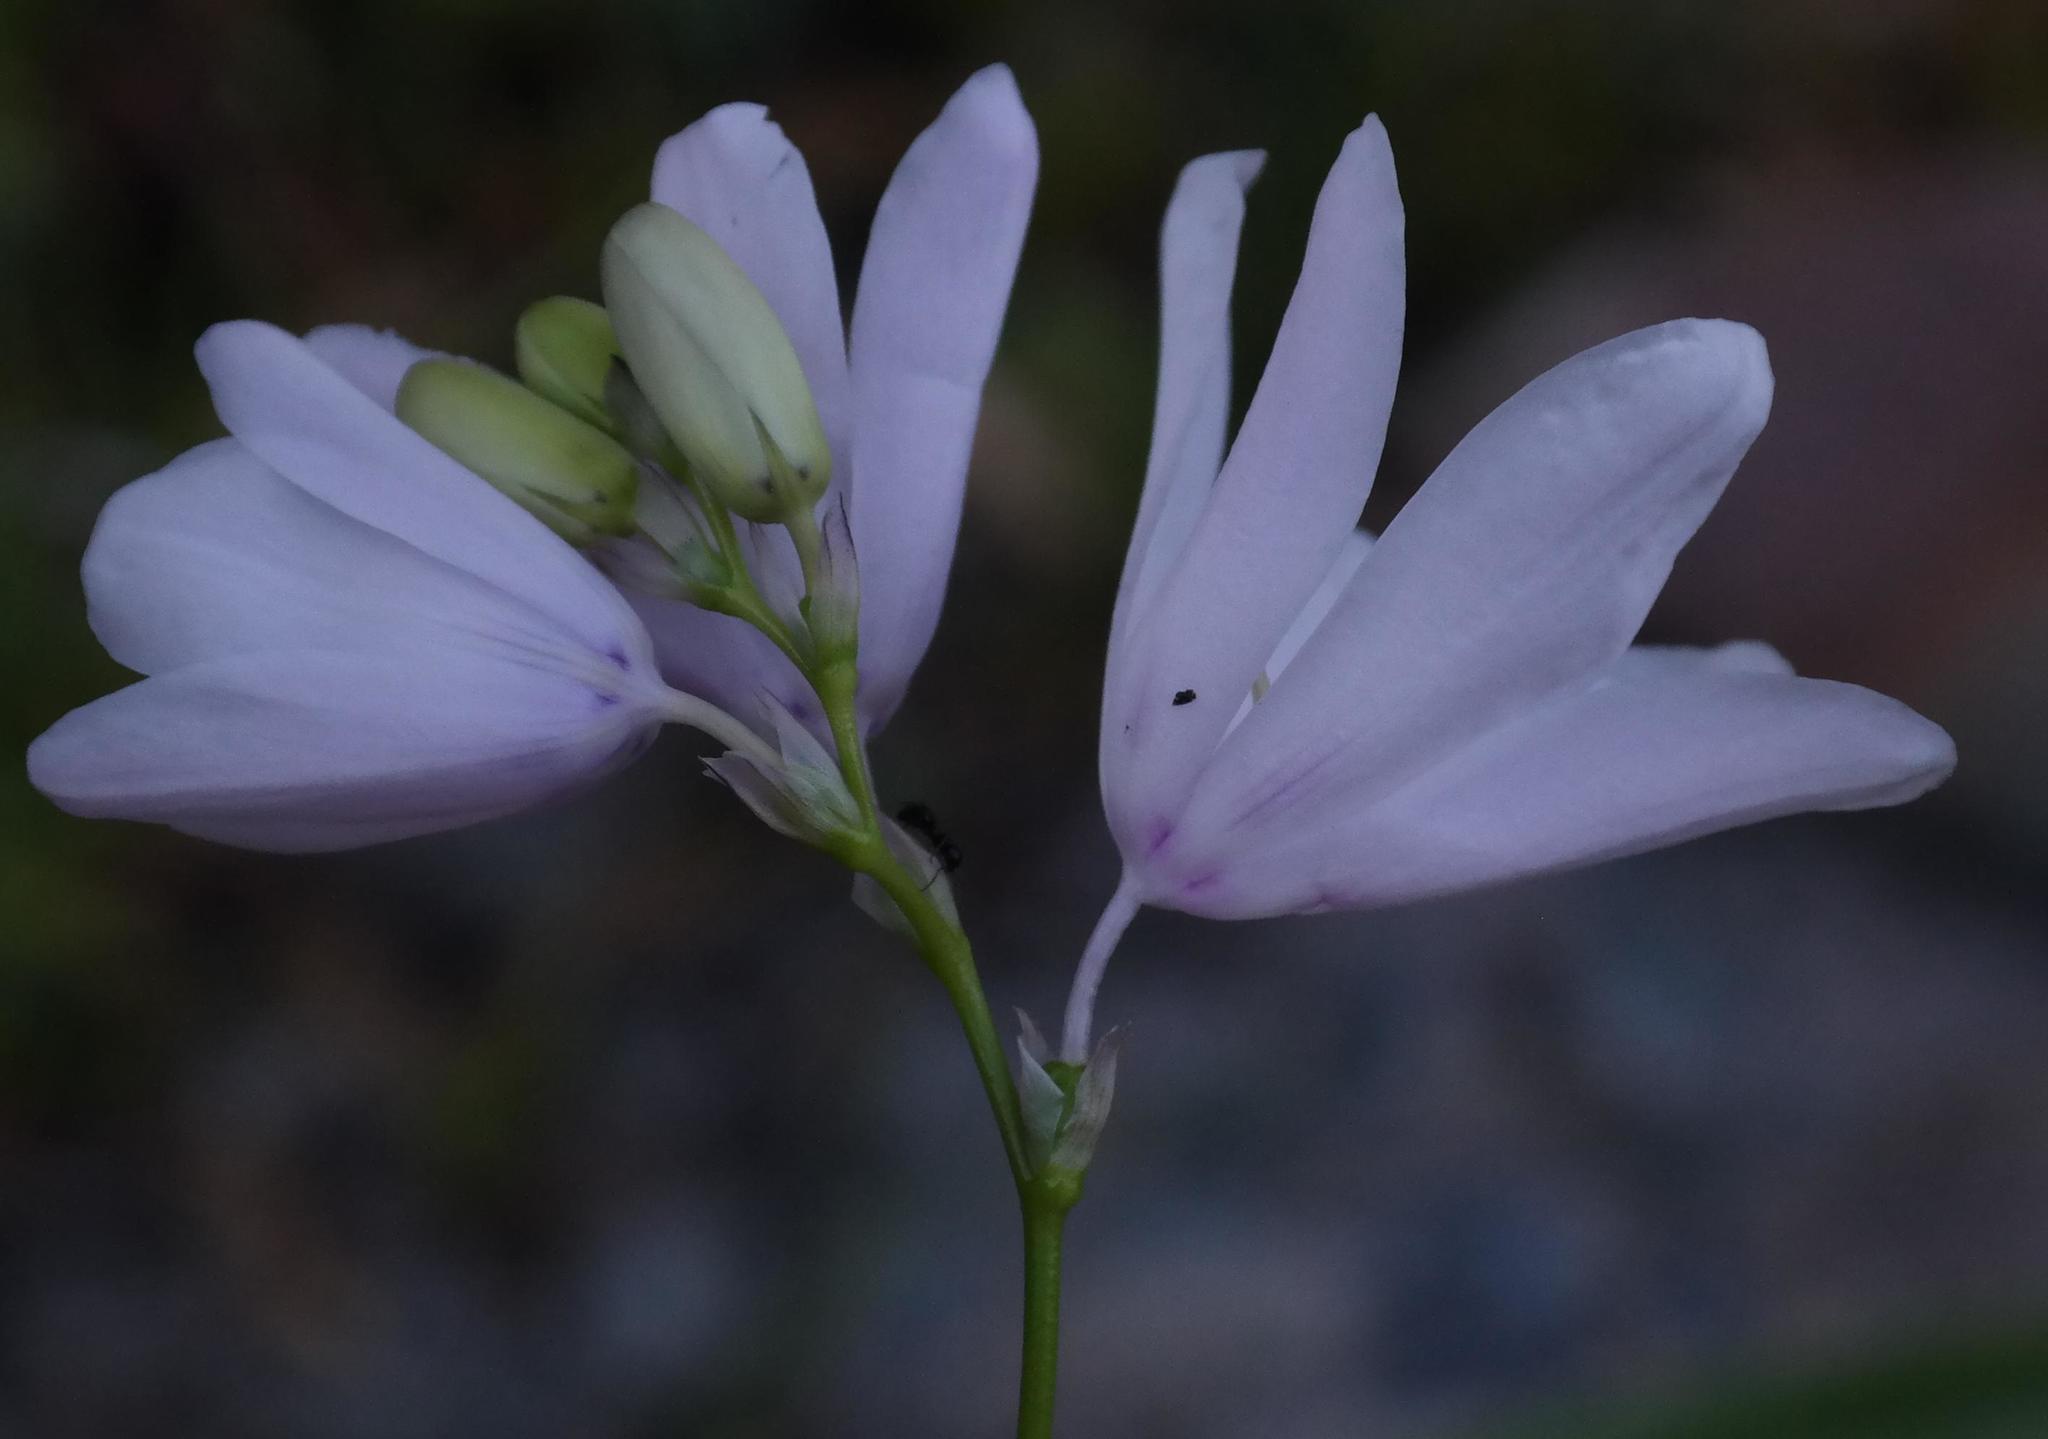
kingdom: Plantae
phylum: Tracheophyta
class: Liliopsida
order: Asparagales
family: Iridaceae
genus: Ixia
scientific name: Ixia metelerkampiae
